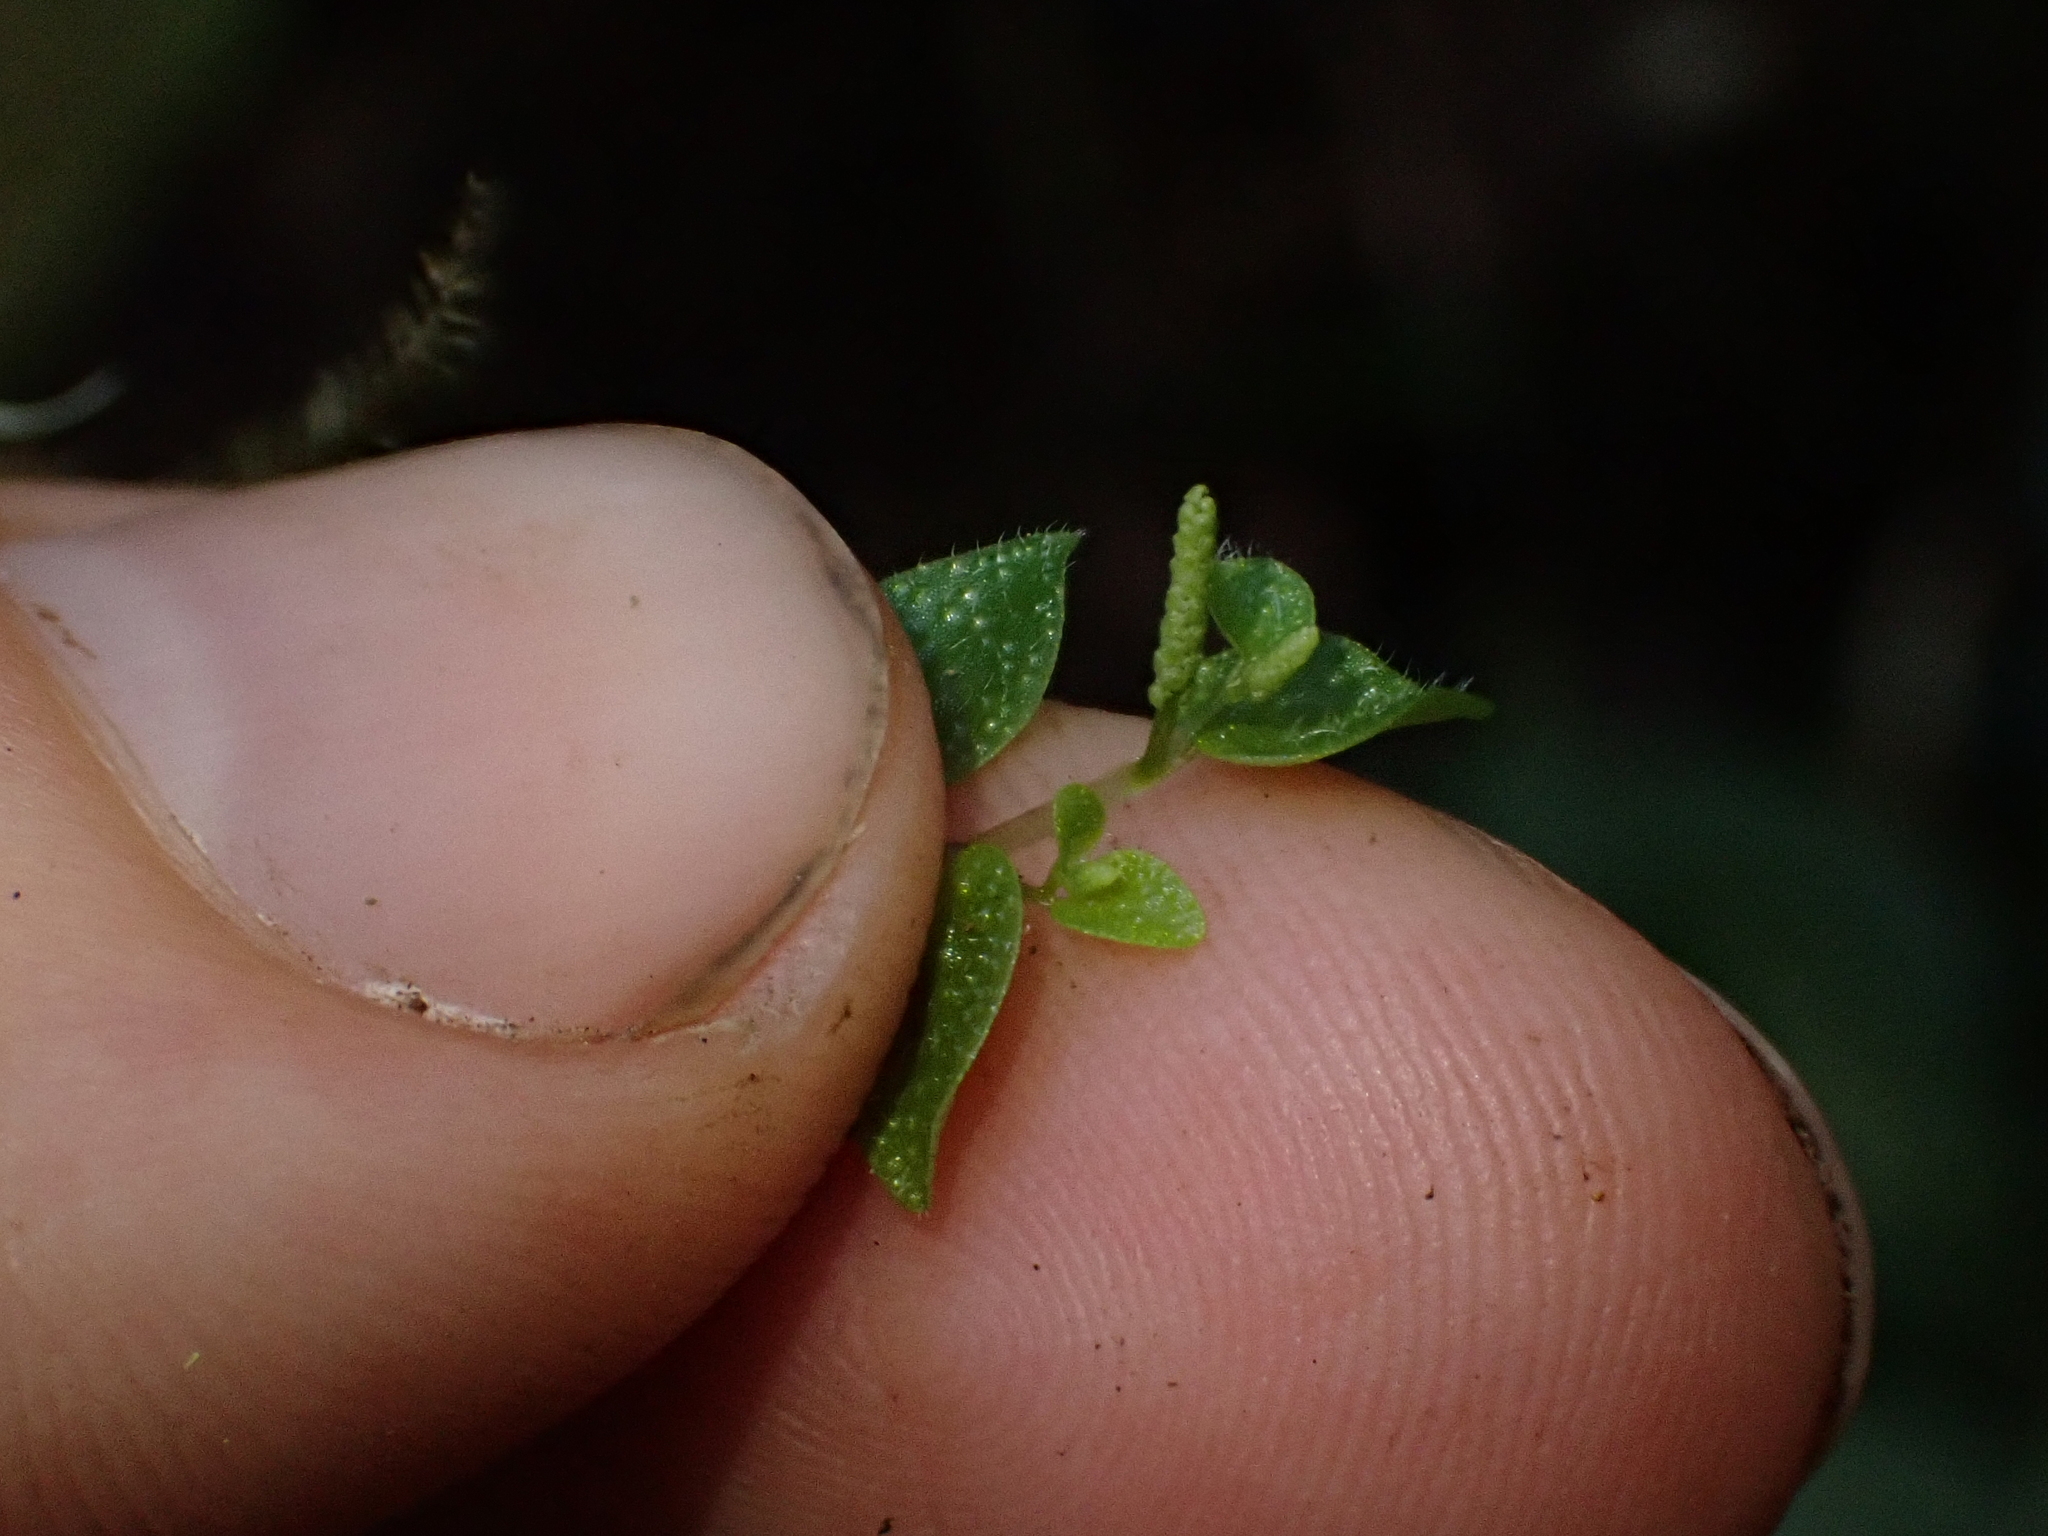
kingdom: Plantae
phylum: Tracheophyta
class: Magnoliopsida
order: Piperales
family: Piperaceae
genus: Peperomia
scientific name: Peperomia tovariana
